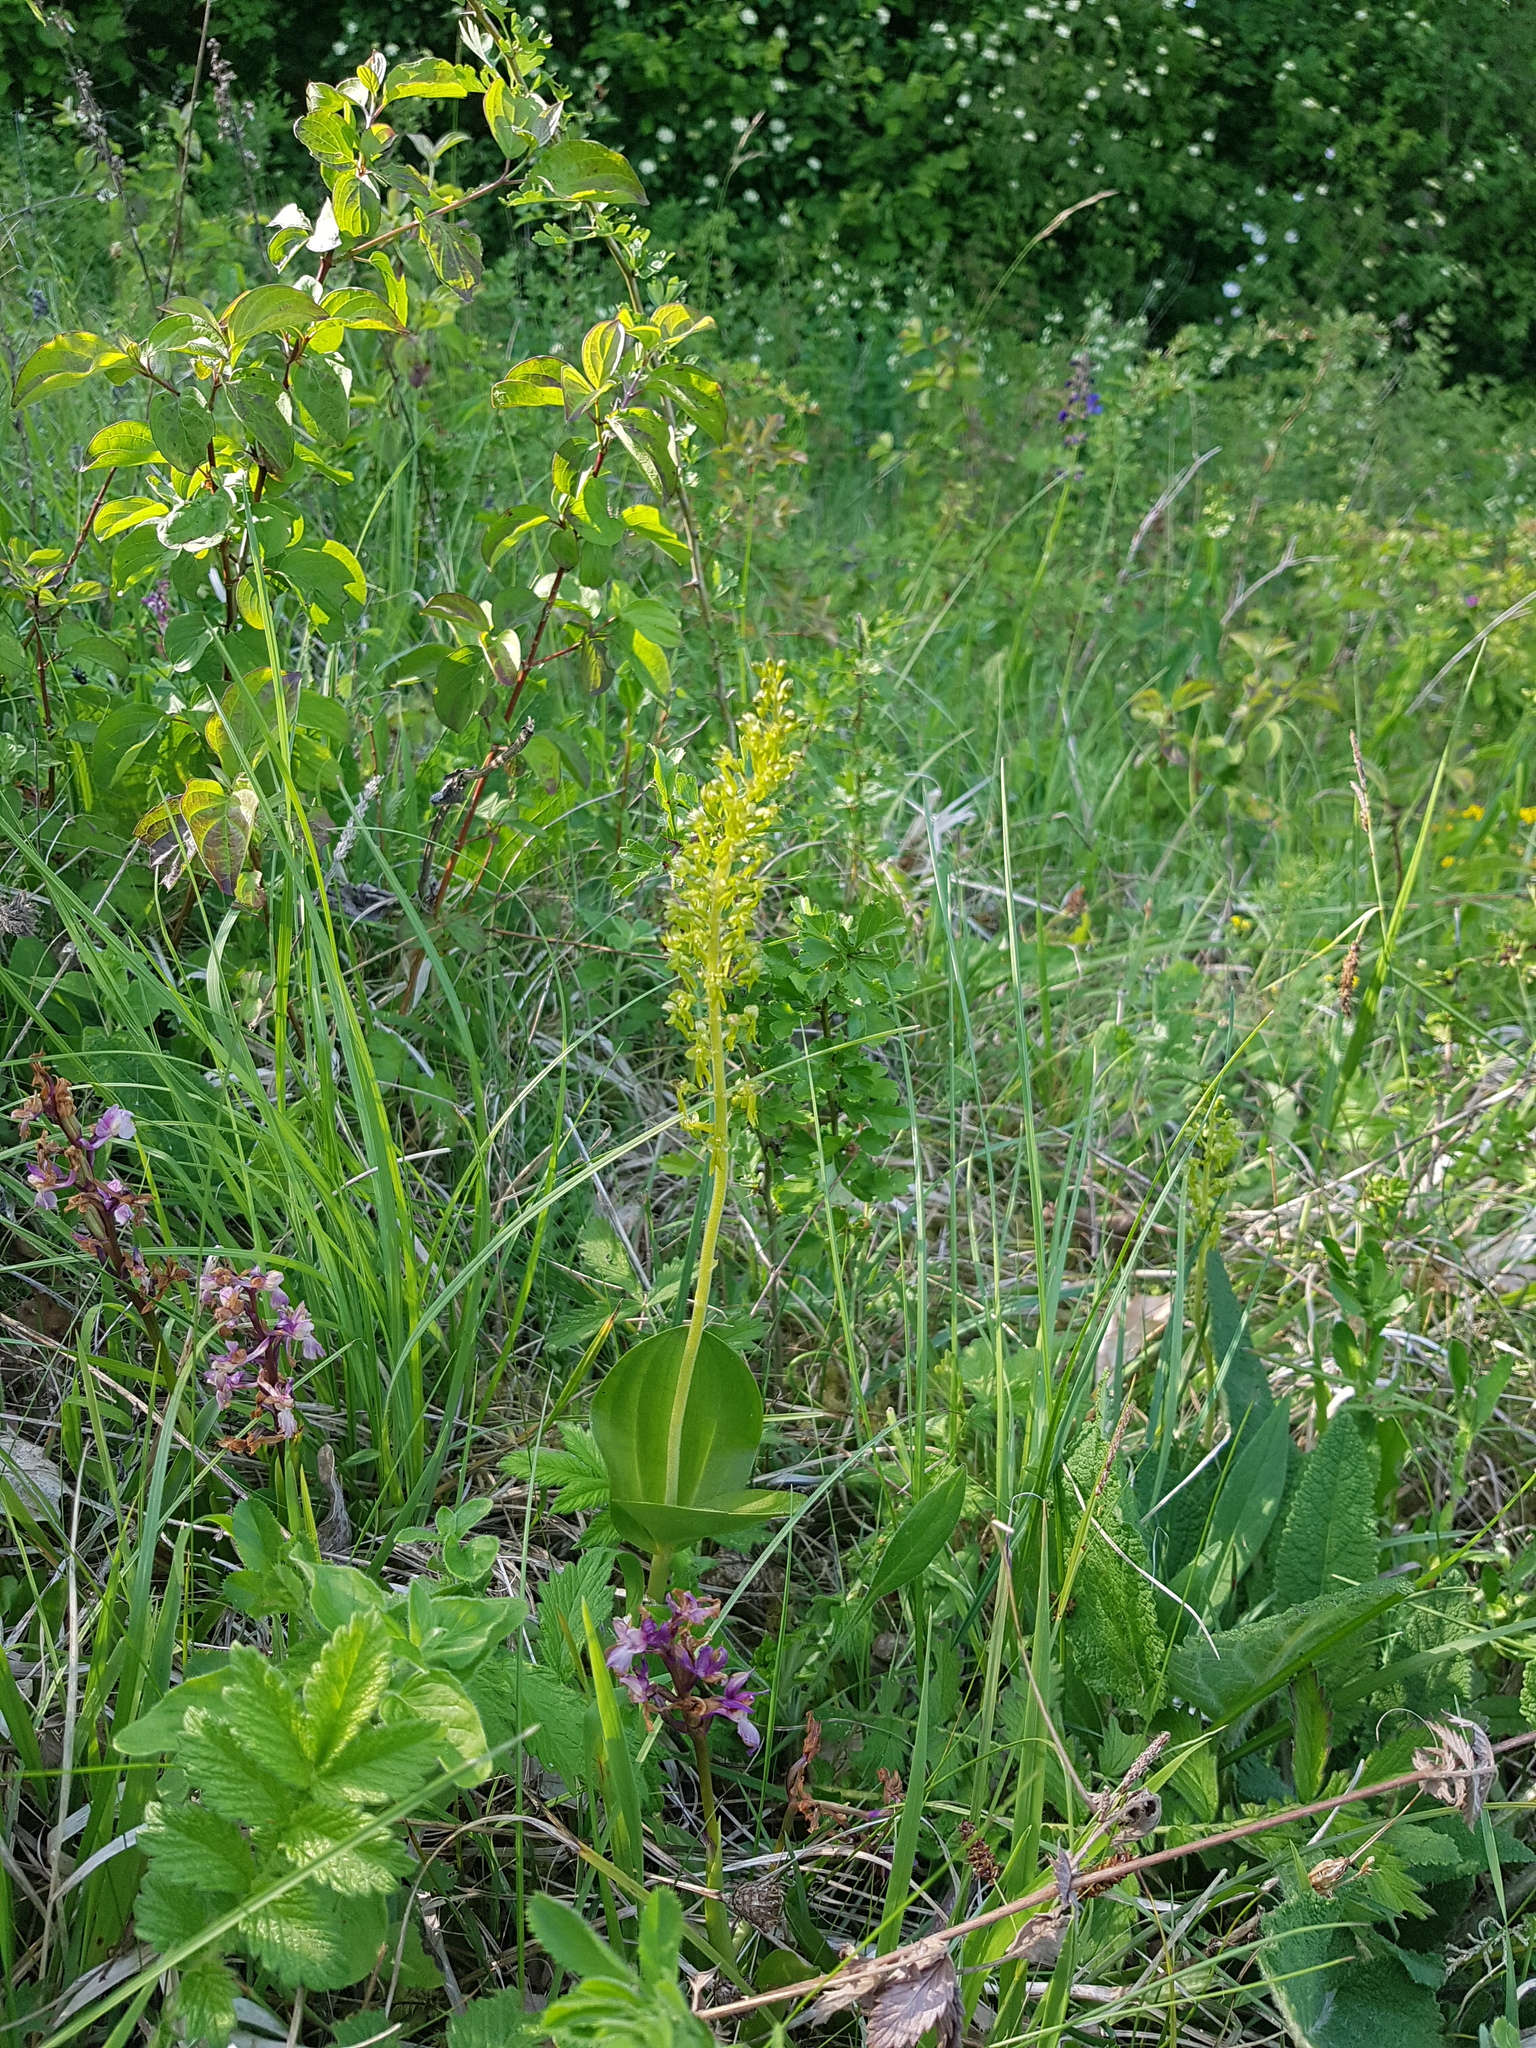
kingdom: Plantae
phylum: Tracheophyta
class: Liliopsida
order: Asparagales
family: Orchidaceae
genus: Neottia
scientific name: Neottia ovata
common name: Common twayblade
